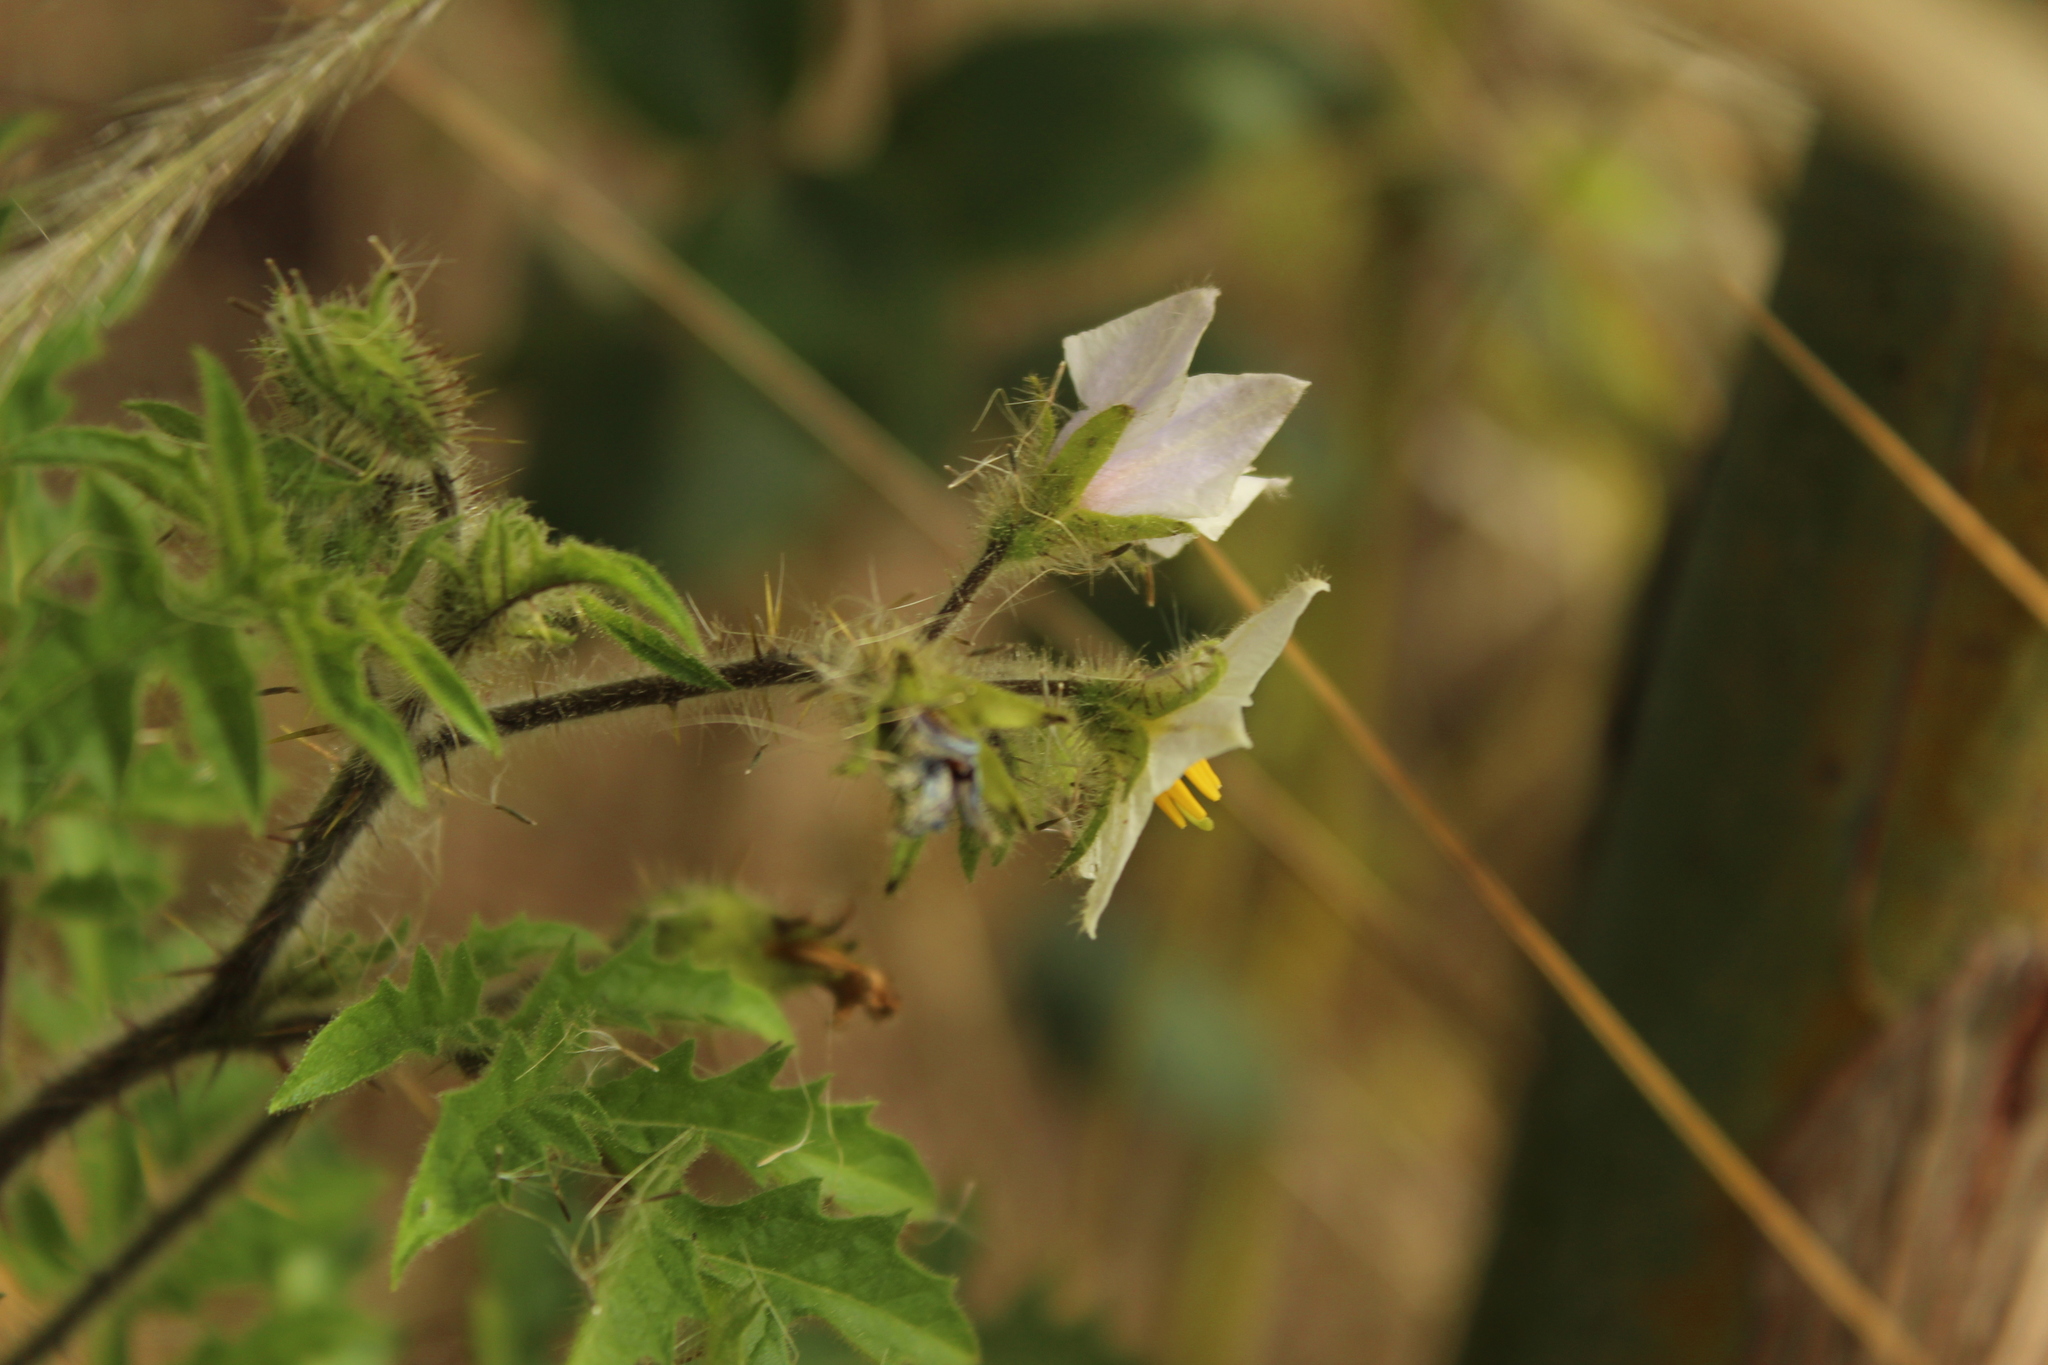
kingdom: Plantae
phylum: Tracheophyta
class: Magnoliopsida
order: Solanales
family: Solanaceae
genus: Solanum
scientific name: Solanum sisymbriifolium
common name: Red buffalo-bur
